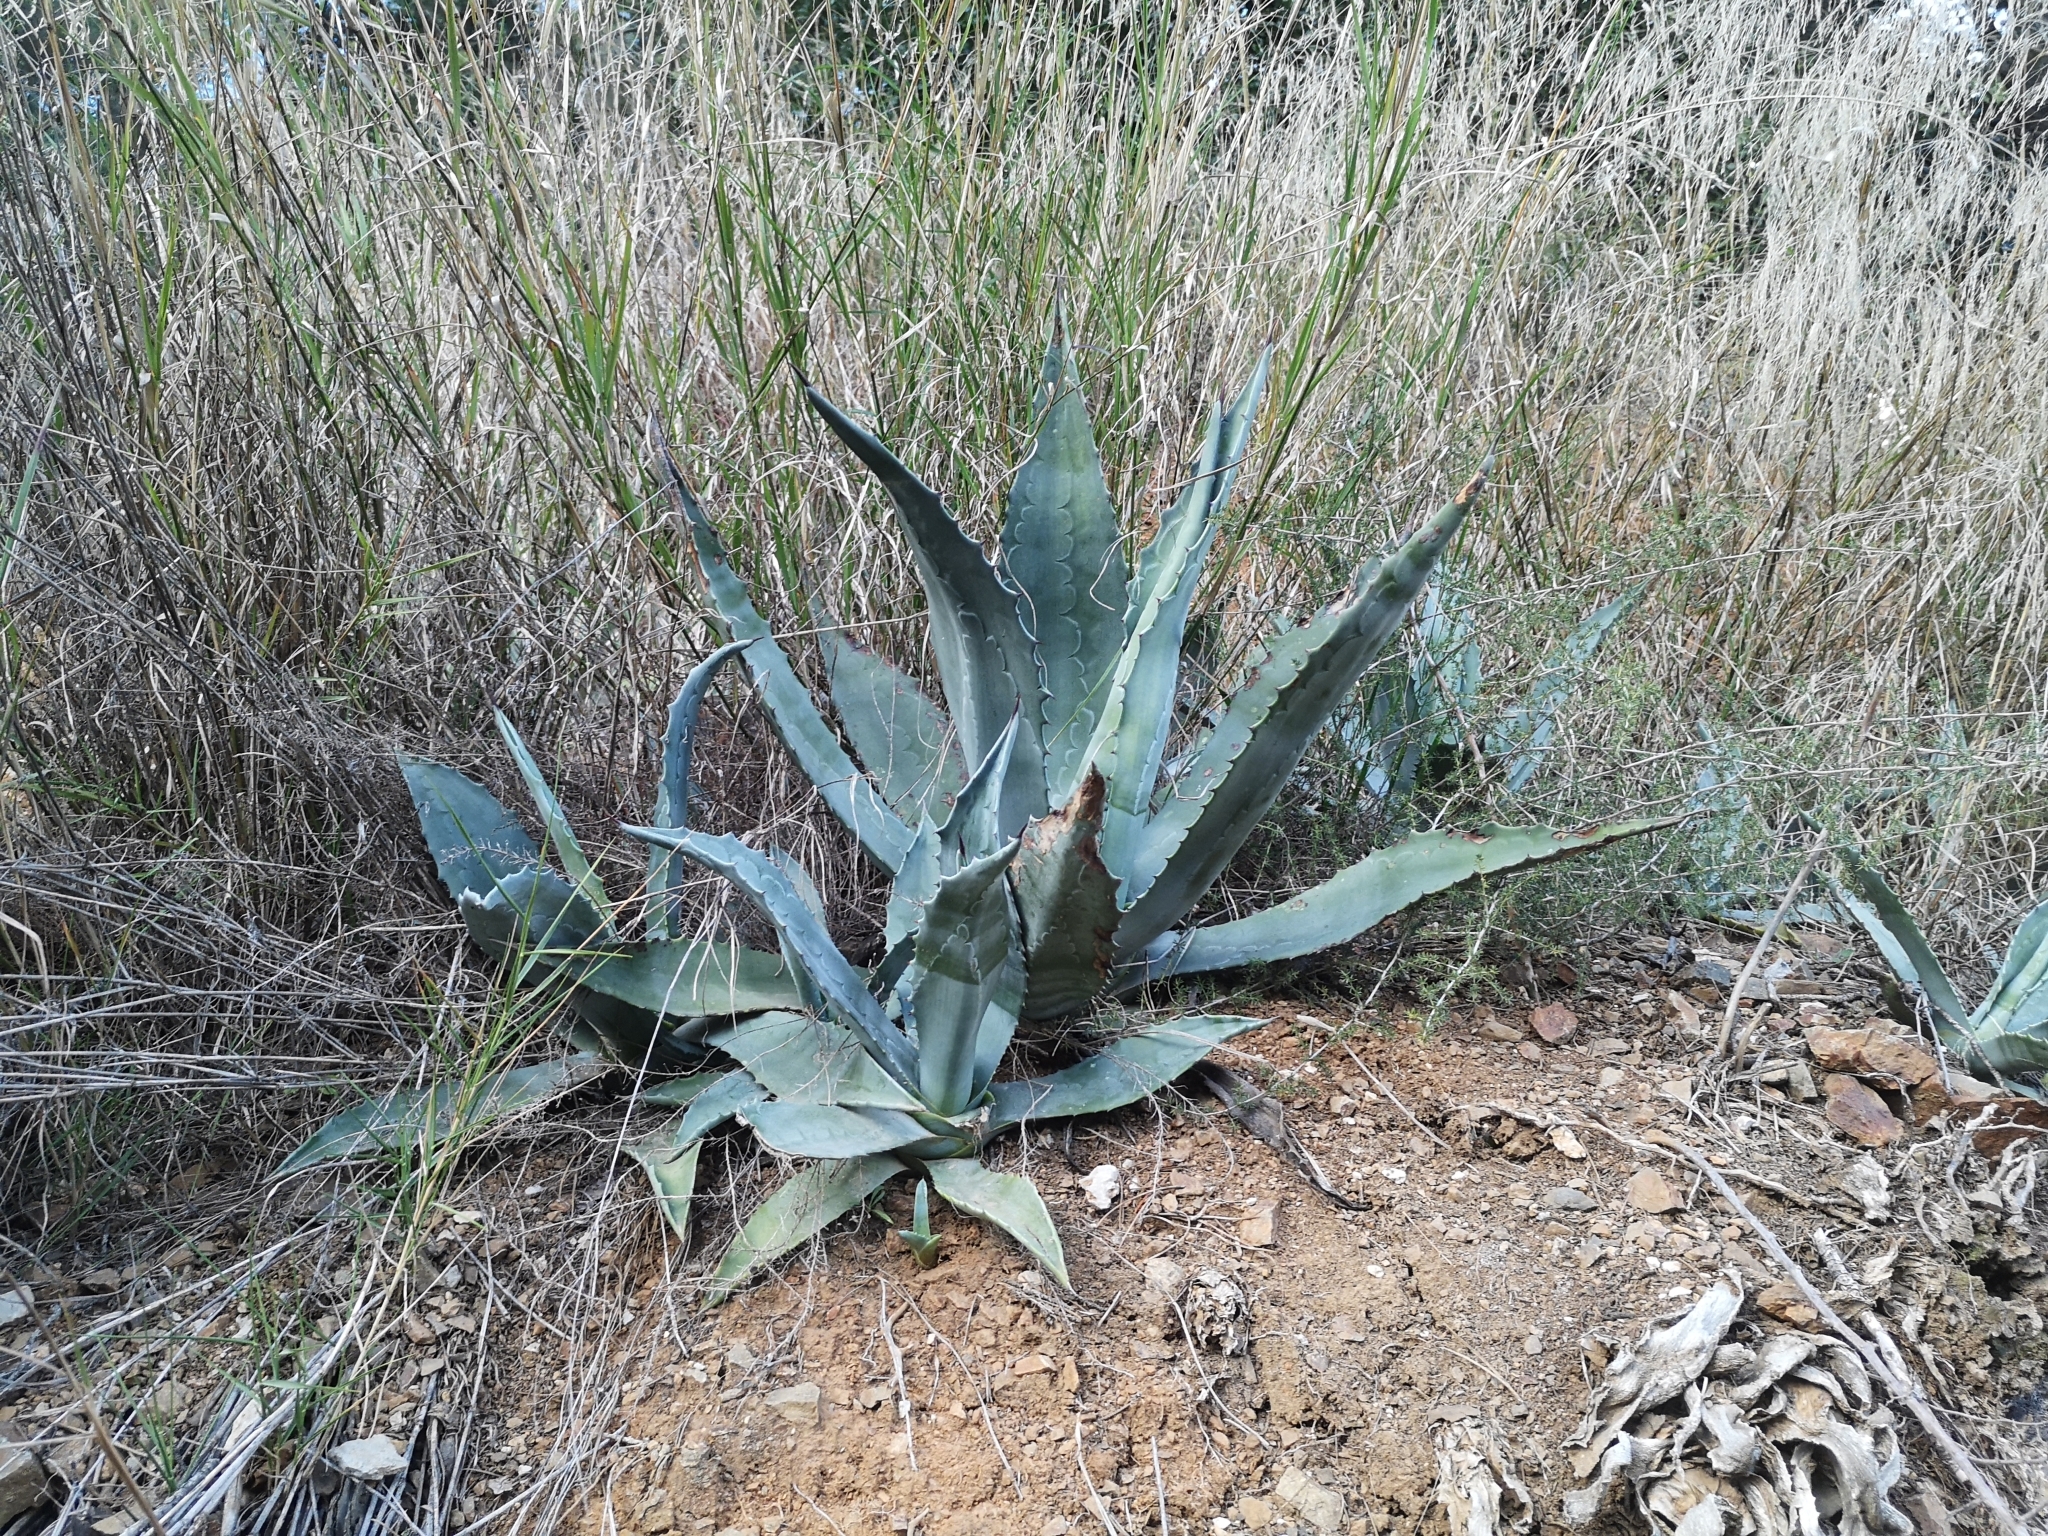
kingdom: Plantae
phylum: Tracheophyta
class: Liliopsida
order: Asparagales
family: Asparagaceae
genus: Agave
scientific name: Agave americana
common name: Centuryplant
